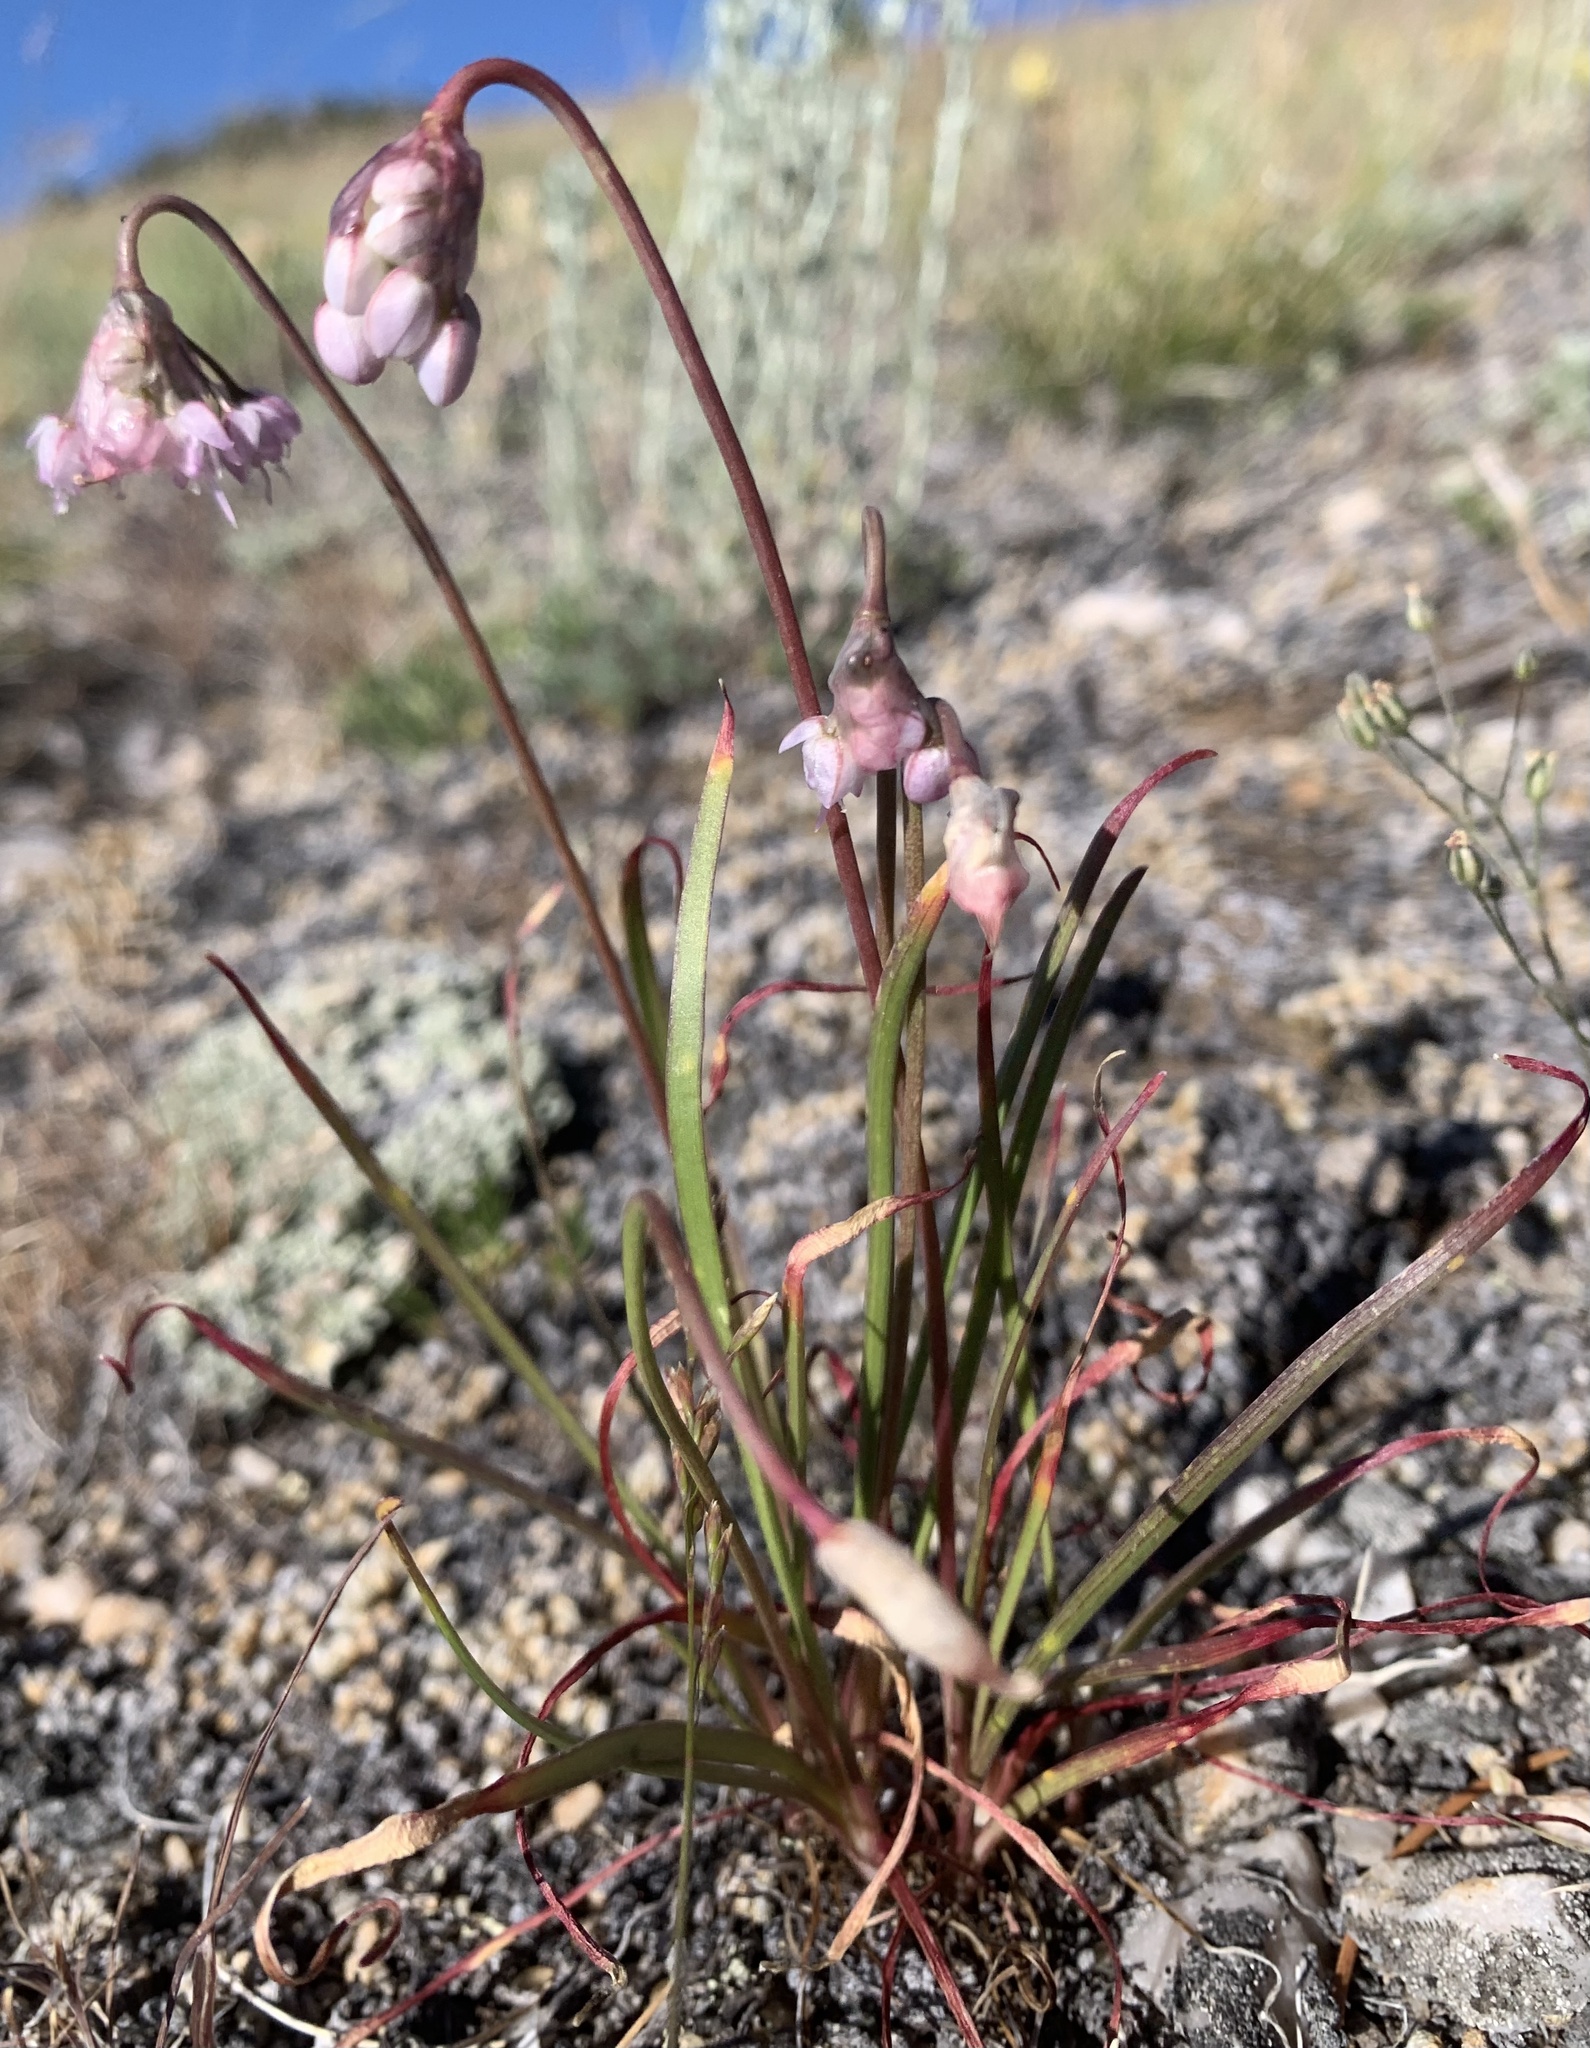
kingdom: Plantae
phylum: Tracheophyta
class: Liliopsida
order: Asparagales
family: Amaryllidaceae
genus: Allium
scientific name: Allium cernuum
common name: Nodding onion
